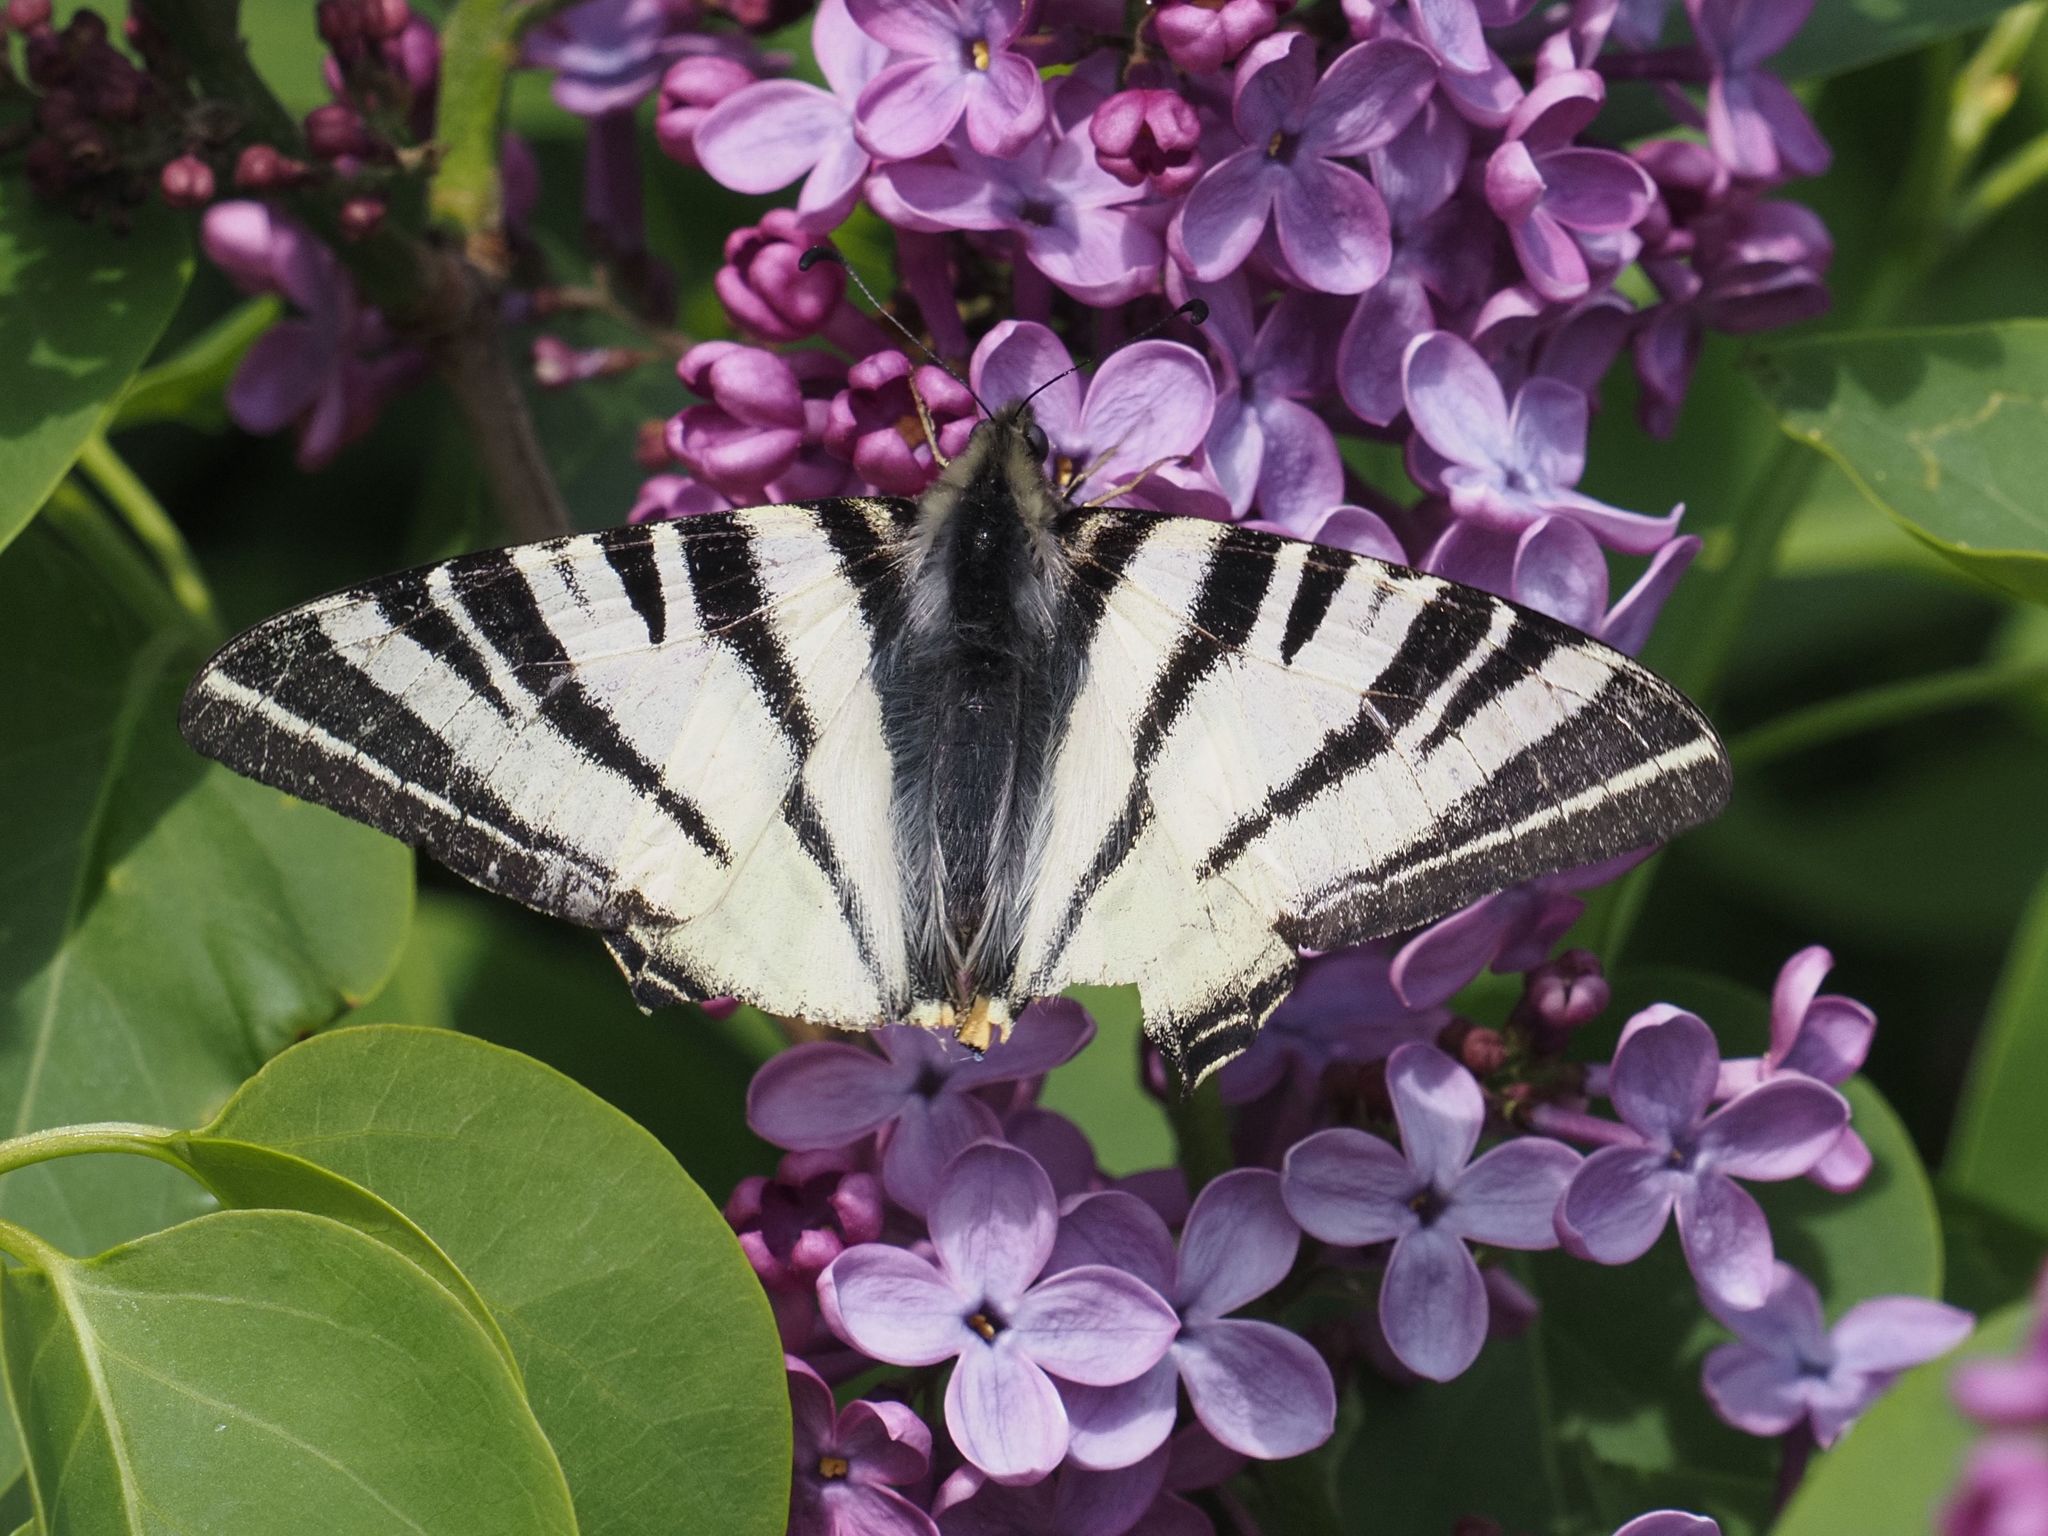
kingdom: Animalia
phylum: Arthropoda
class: Insecta
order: Lepidoptera
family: Papilionidae
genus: Iphiclides
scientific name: Iphiclides podalirius
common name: Scarce swallowtail
